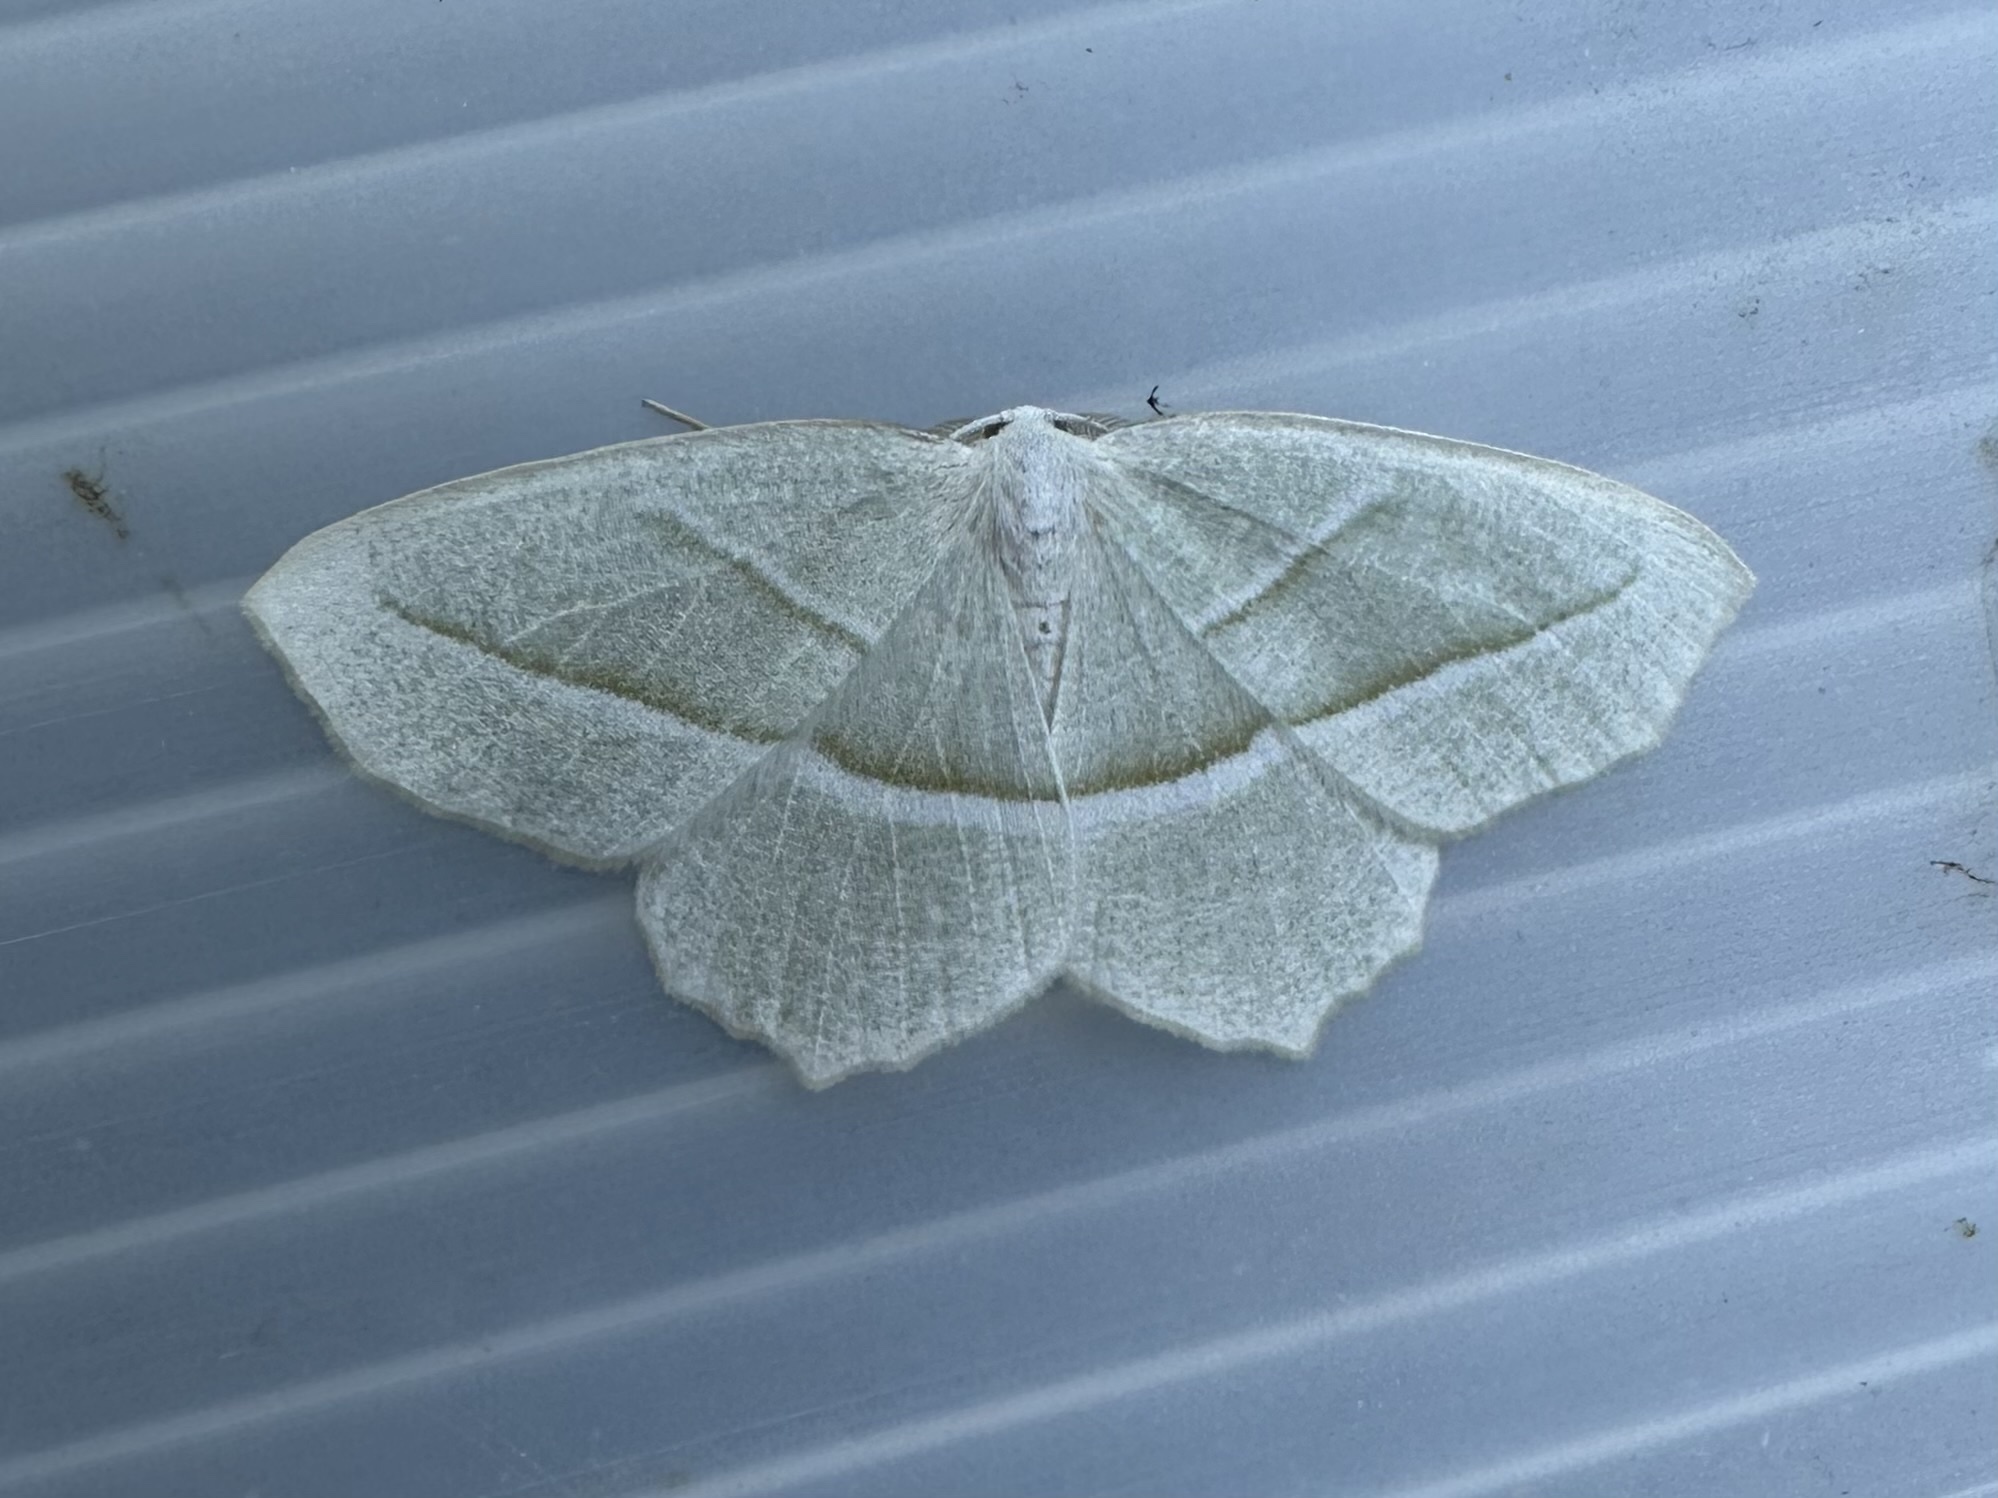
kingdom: Animalia
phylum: Arthropoda
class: Insecta
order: Lepidoptera
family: Geometridae
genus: Campaea
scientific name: Campaea perlata
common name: Fringed looper
